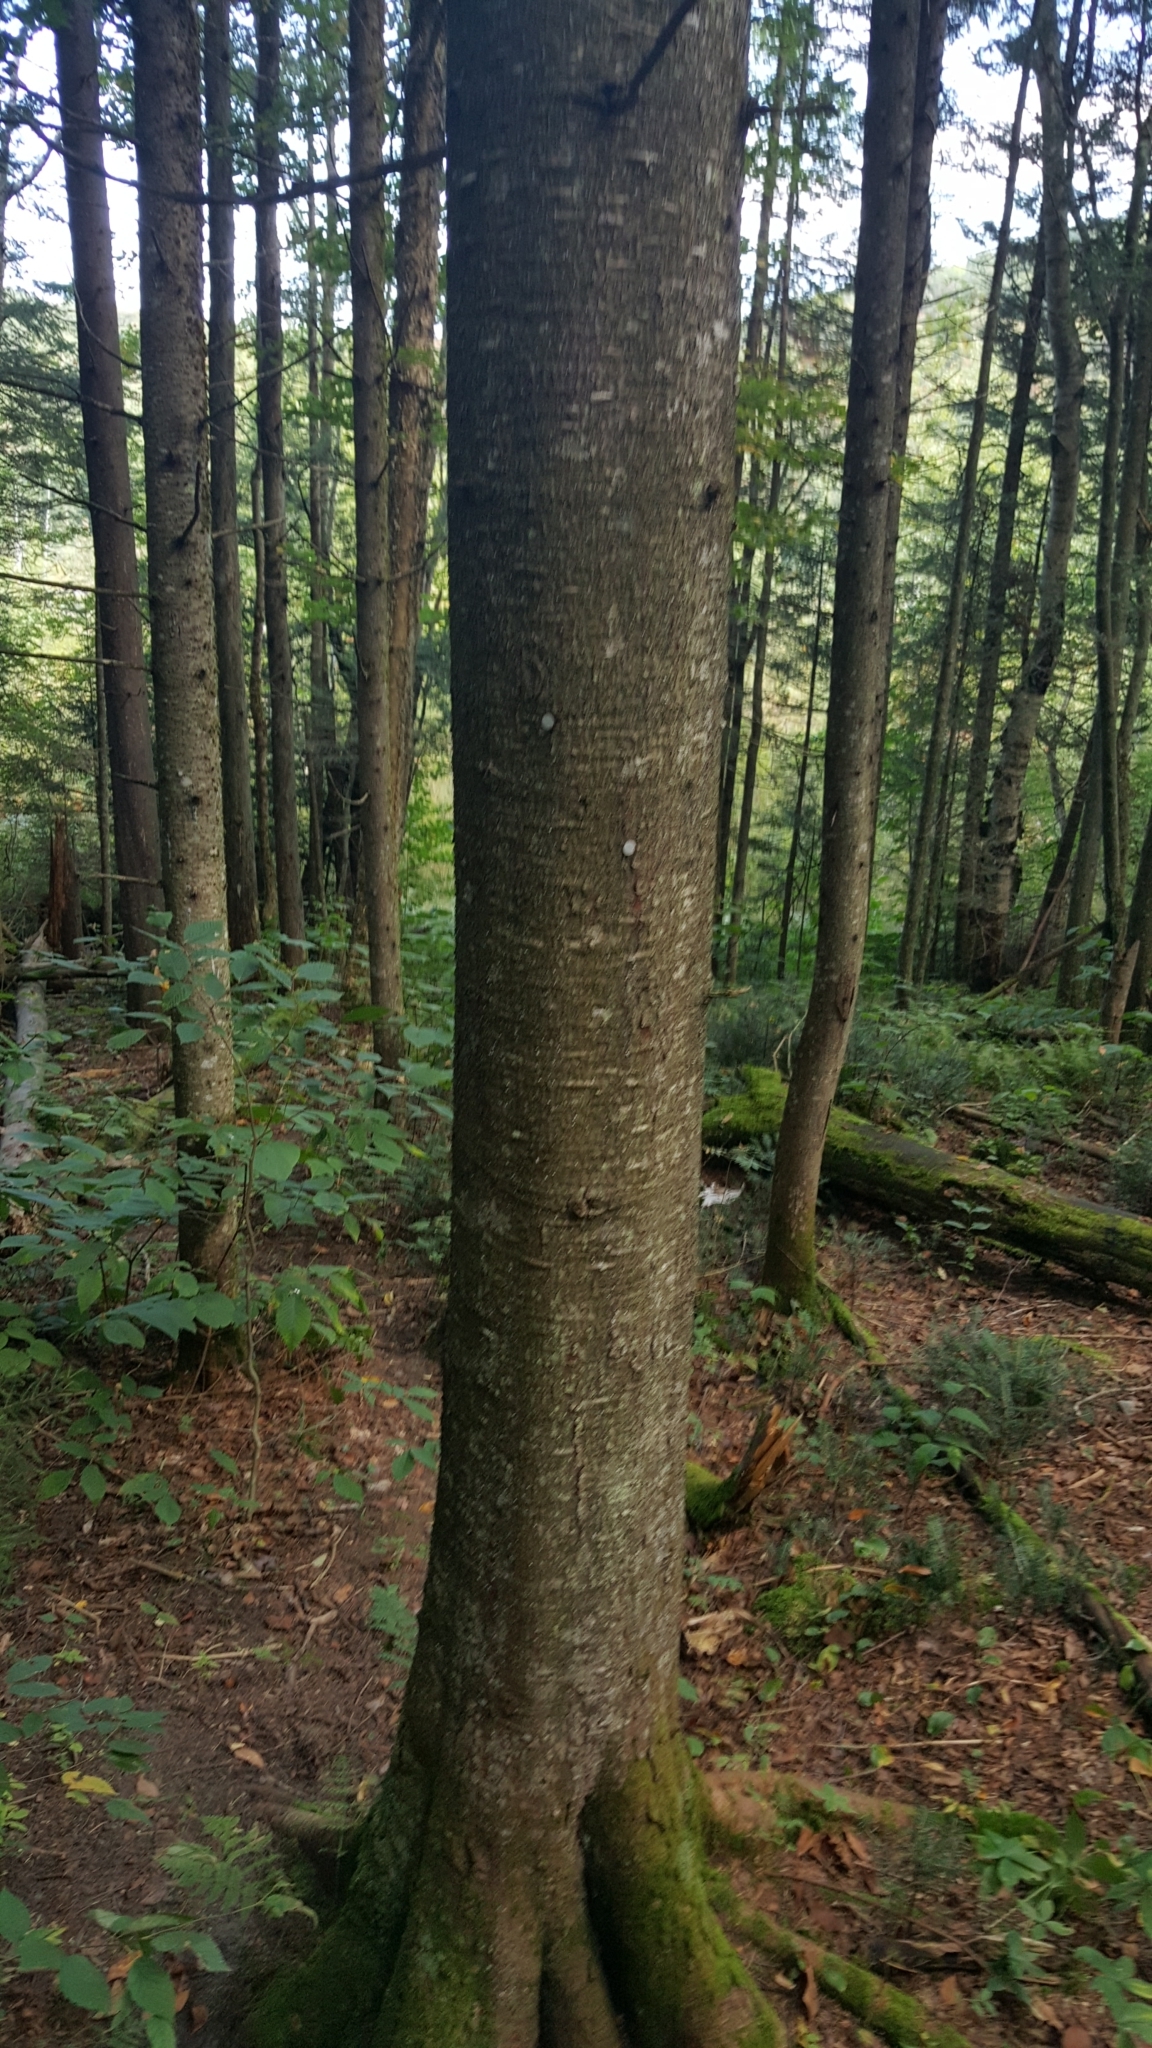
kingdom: Plantae
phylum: Tracheophyta
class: Pinopsida
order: Pinales
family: Pinaceae
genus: Abies
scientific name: Abies balsamea
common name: Balsam fir
